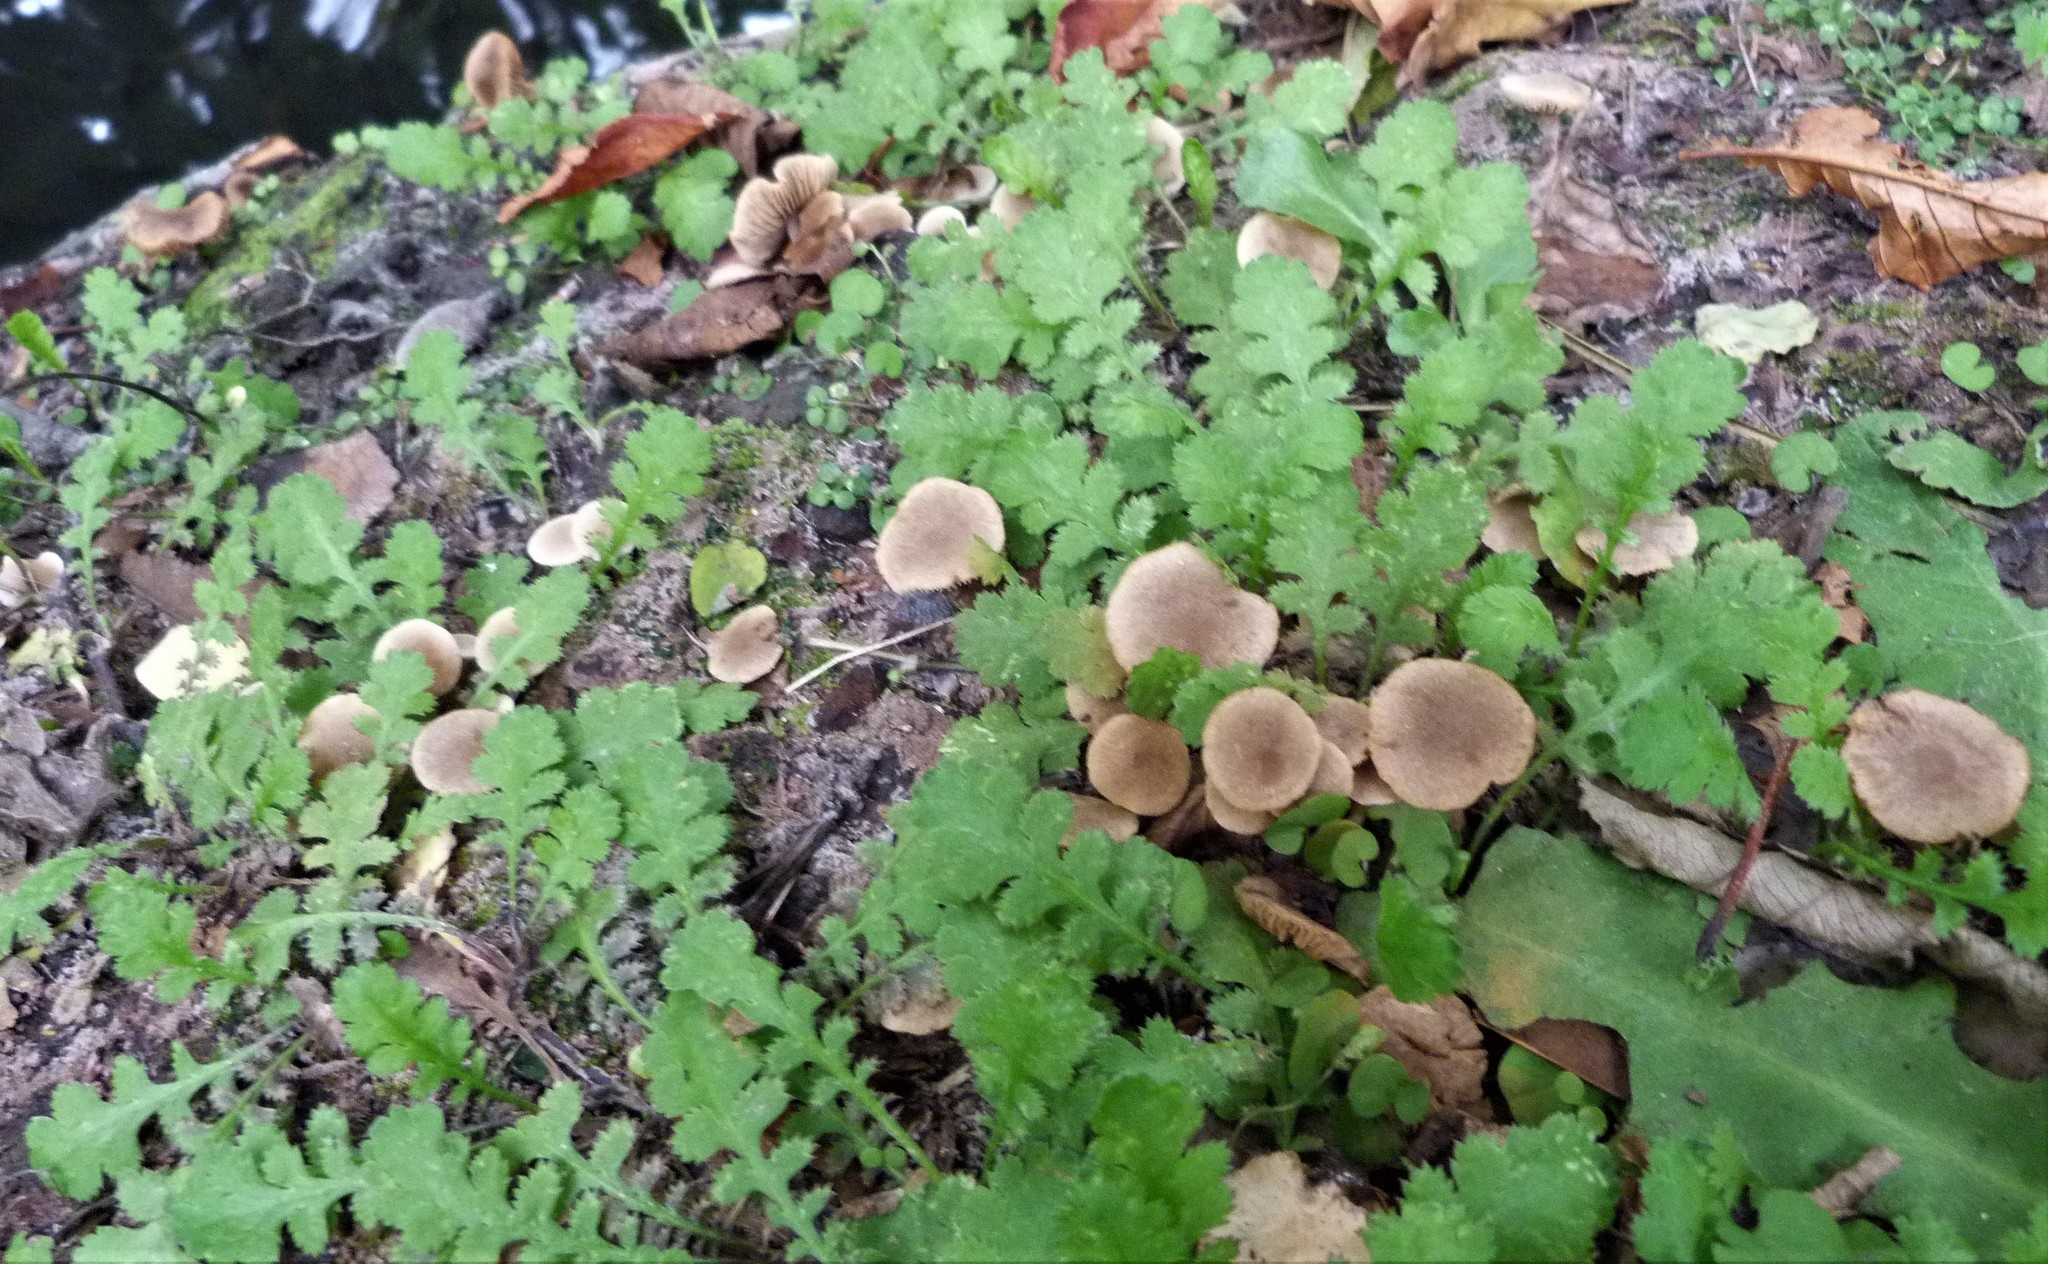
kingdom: Fungi
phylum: Basidiomycota
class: Agaricomycetes
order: Agaricales
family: Tubariaceae
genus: Tubaria
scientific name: Tubaria furfuracea
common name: Scurfy twiglet
